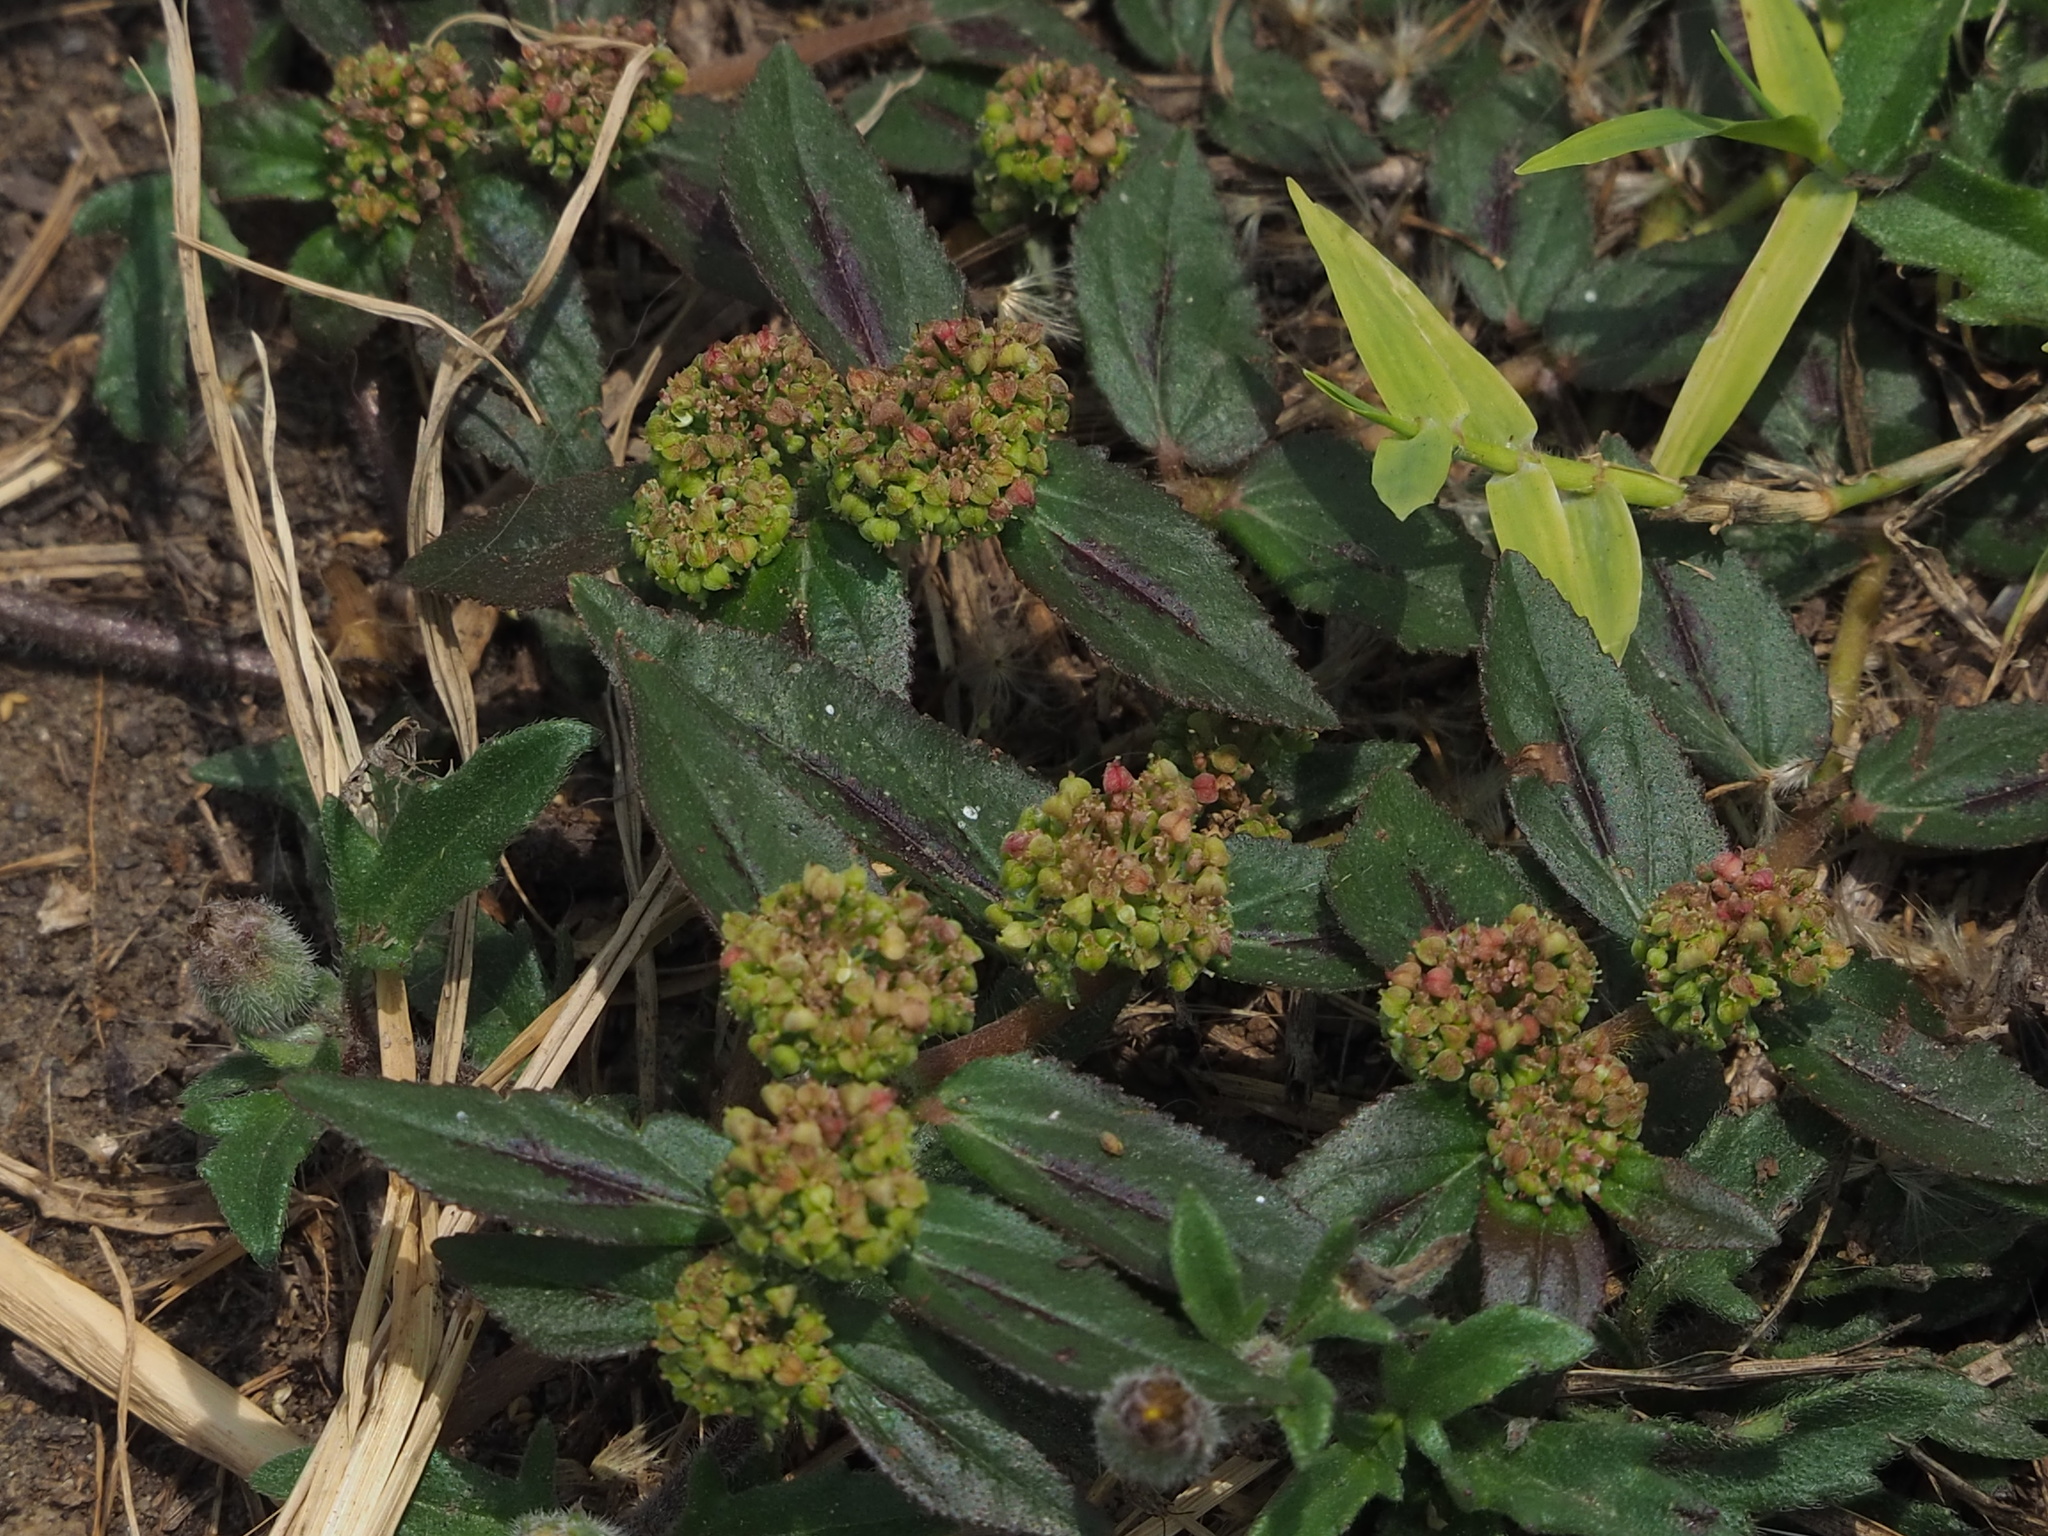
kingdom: Plantae
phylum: Tracheophyta
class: Magnoliopsida
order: Malpighiales
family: Euphorbiaceae
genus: Euphorbia
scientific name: Euphorbia hirta
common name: Pillpod sandmat
